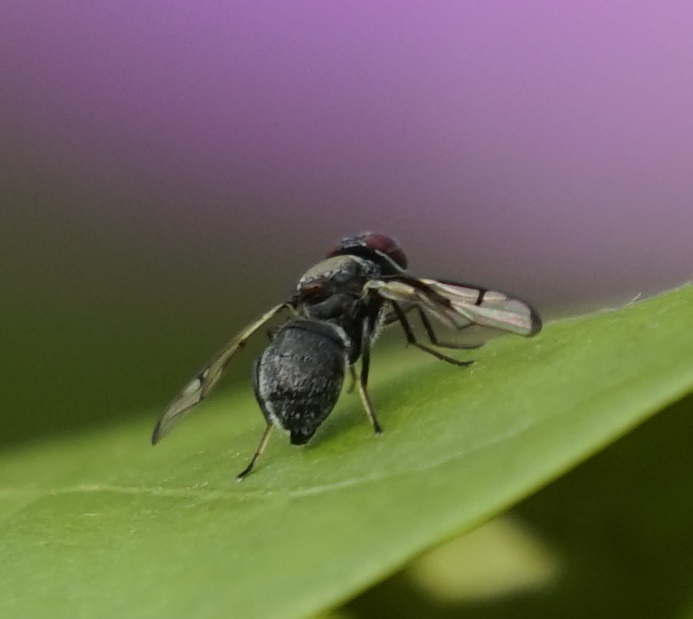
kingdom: Animalia
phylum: Arthropoda
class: Insecta
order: Diptera
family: Platystomatidae
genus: Pogonortalis
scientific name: Pogonortalis doclea
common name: Boatman fly
